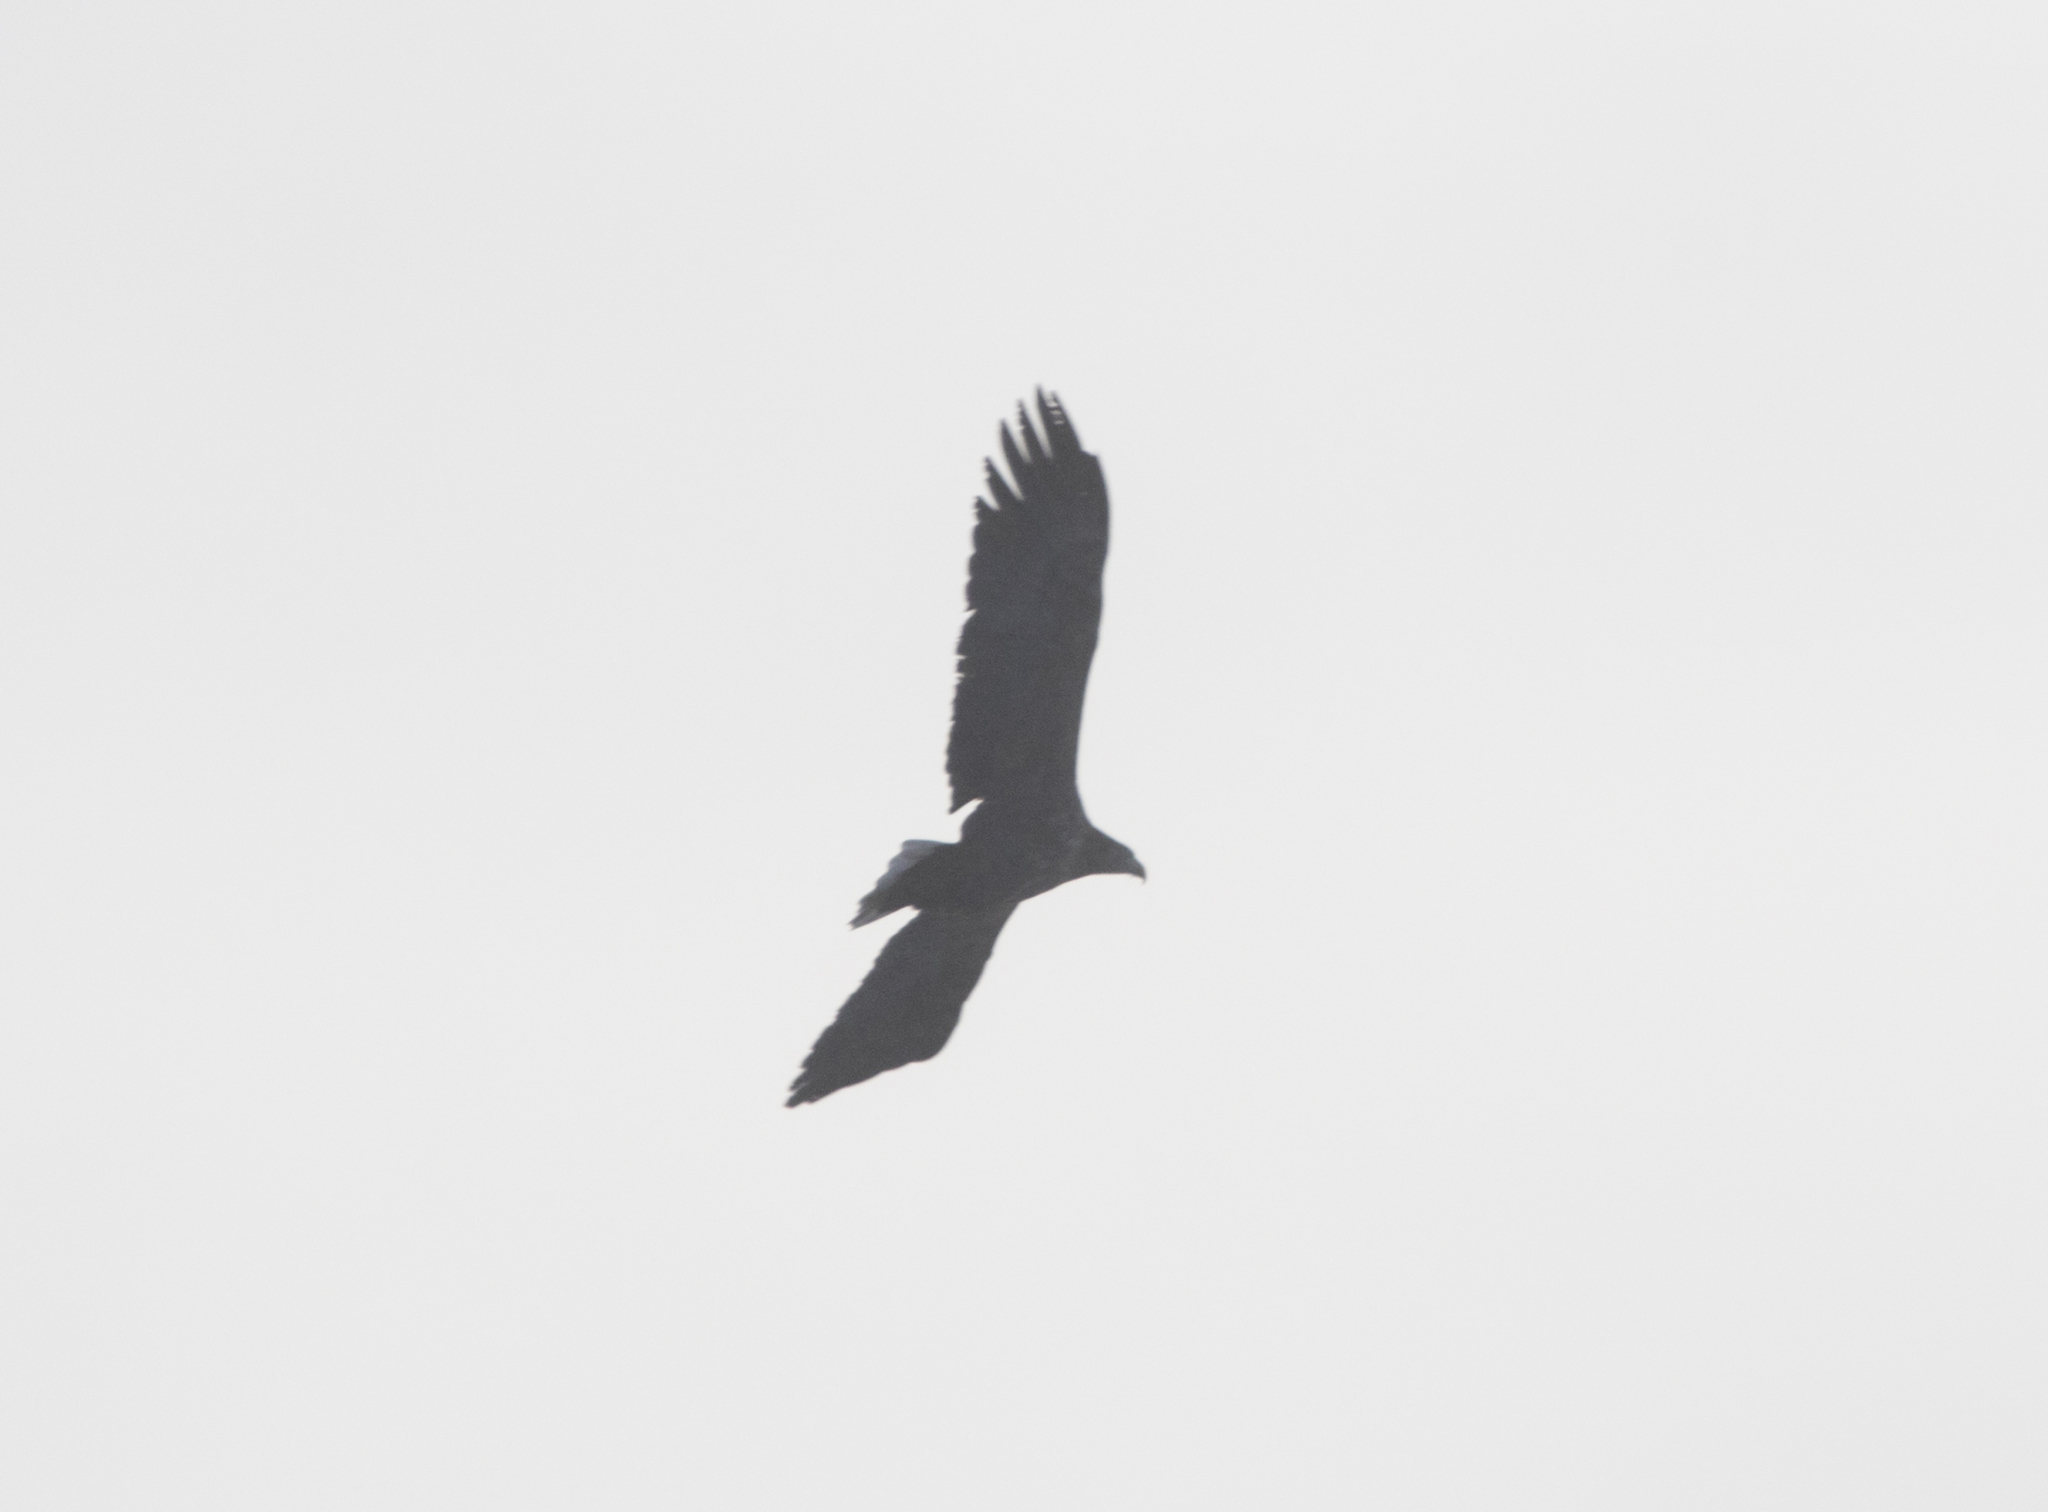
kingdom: Animalia
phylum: Chordata
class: Aves
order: Accipitriformes
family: Accipitridae
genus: Haliaeetus
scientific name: Haliaeetus albicilla
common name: White-tailed eagle
